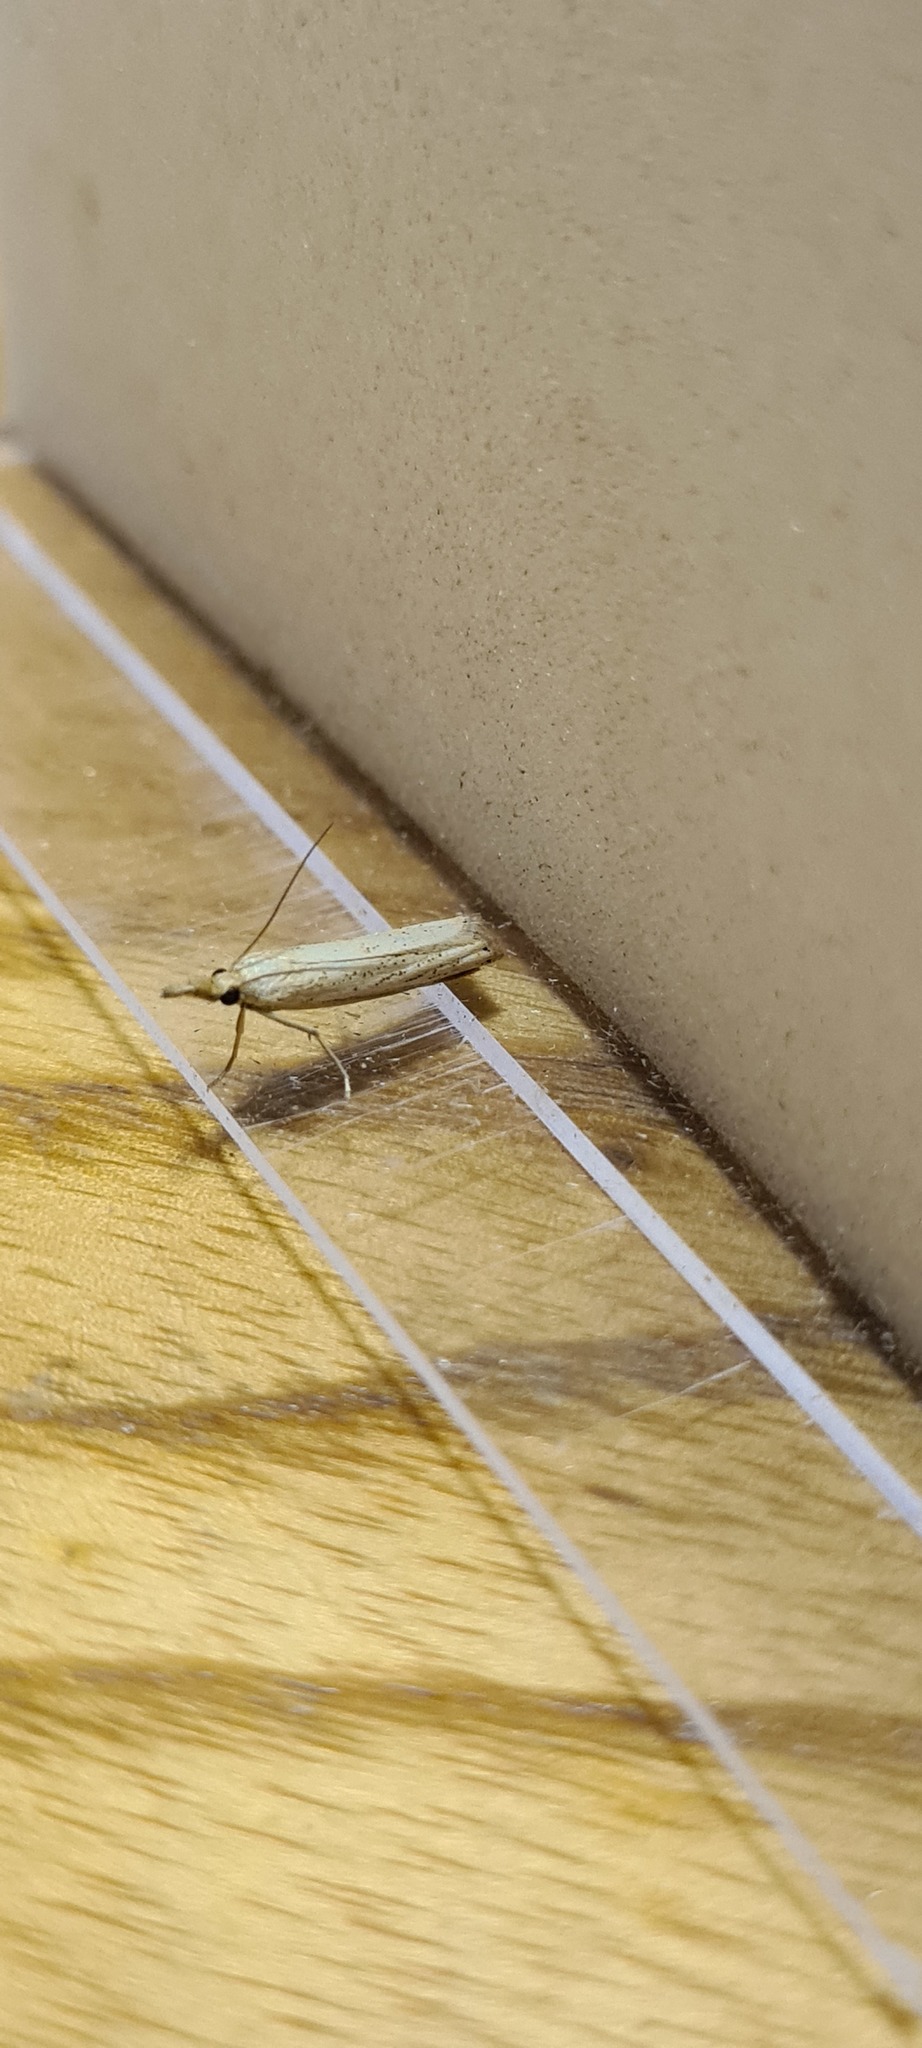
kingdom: Animalia
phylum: Arthropoda
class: Insecta
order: Lepidoptera
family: Crambidae
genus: Agriphila
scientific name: Agriphila straminella
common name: Straw grass-veneer
